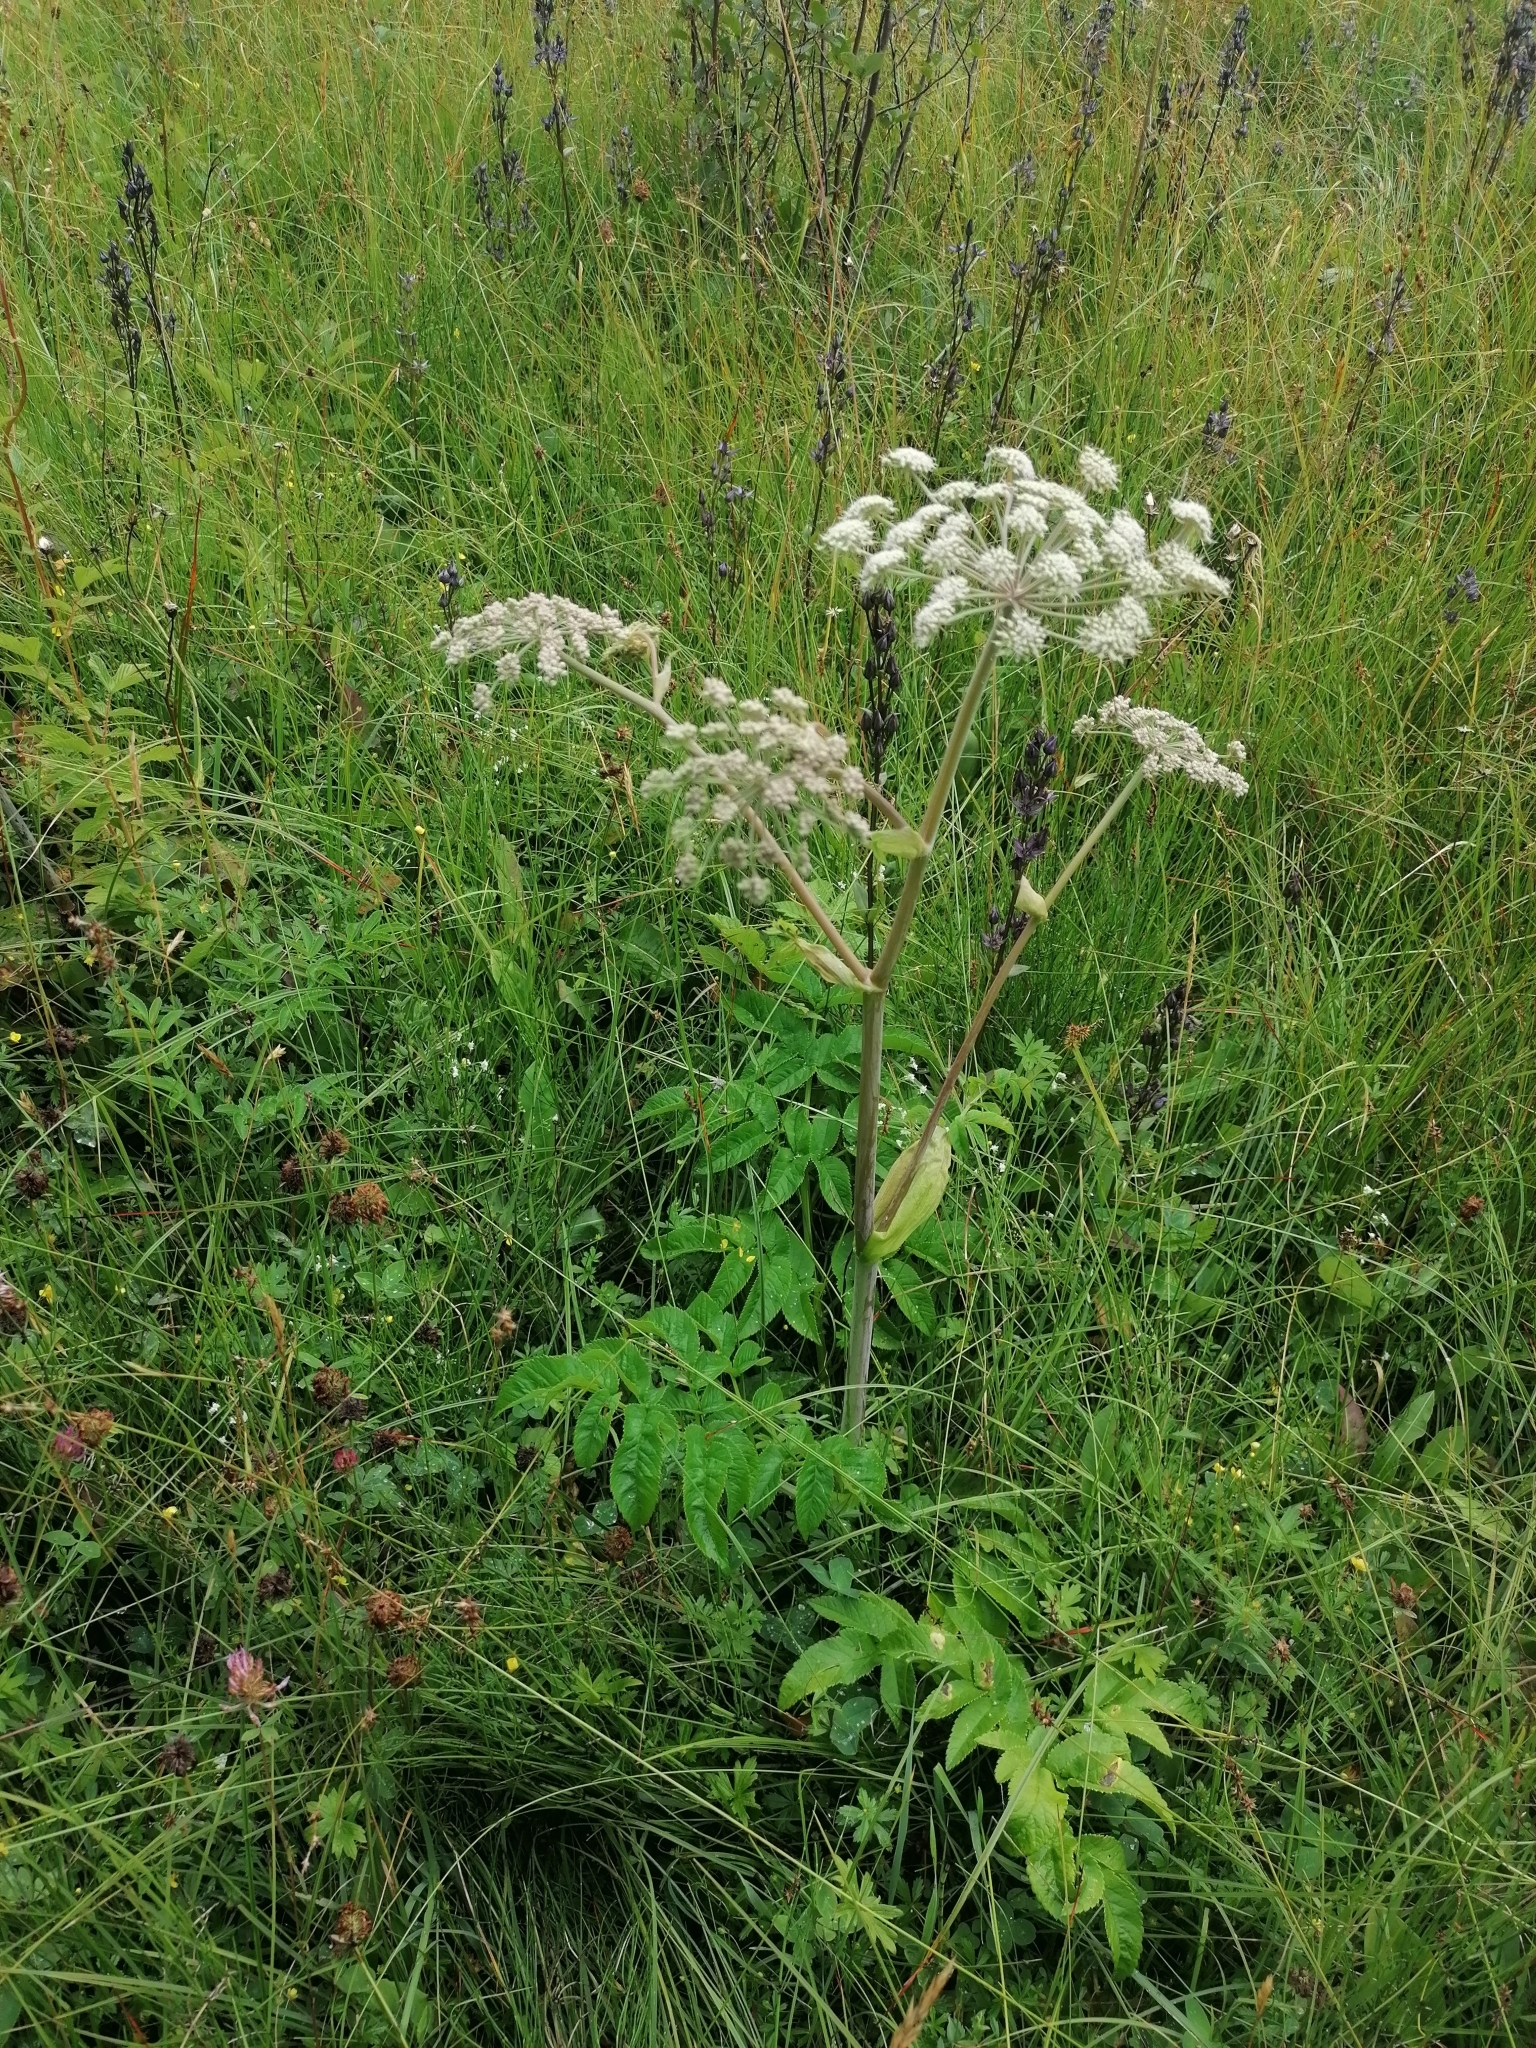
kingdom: Plantae
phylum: Tracheophyta
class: Magnoliopsida
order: Apiales
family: Apiaceae
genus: Angelica
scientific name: Angelica sylvestris
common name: Wild angelica
